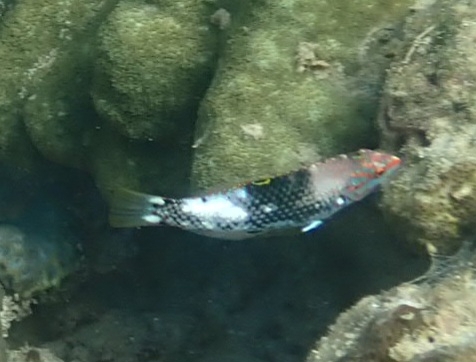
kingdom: Animalia
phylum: Chordata
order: Perciformes
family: Labridae
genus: Halichoeres
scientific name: Halichoeres hortulanus
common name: Checkerboard wrasse
